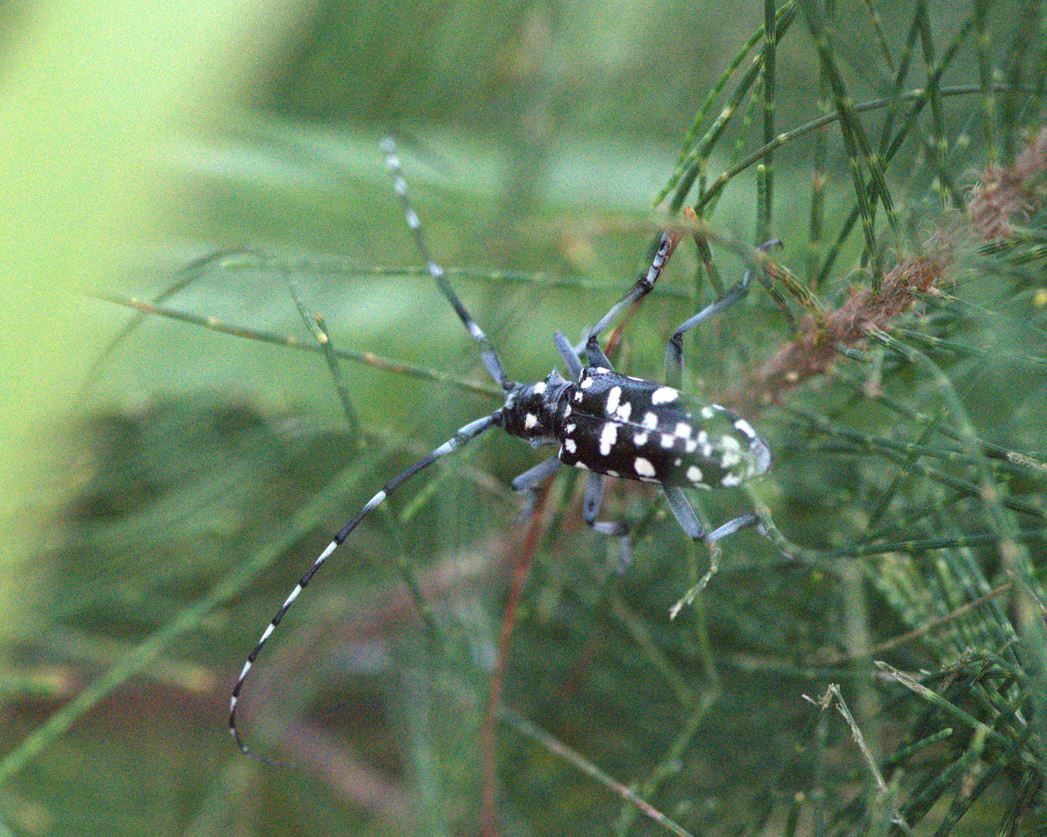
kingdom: Animalia
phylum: Arthropoda
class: Insecta
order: Coleoptera
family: Cerambycidae
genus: Anoplophora
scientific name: Anoplophora macularia
